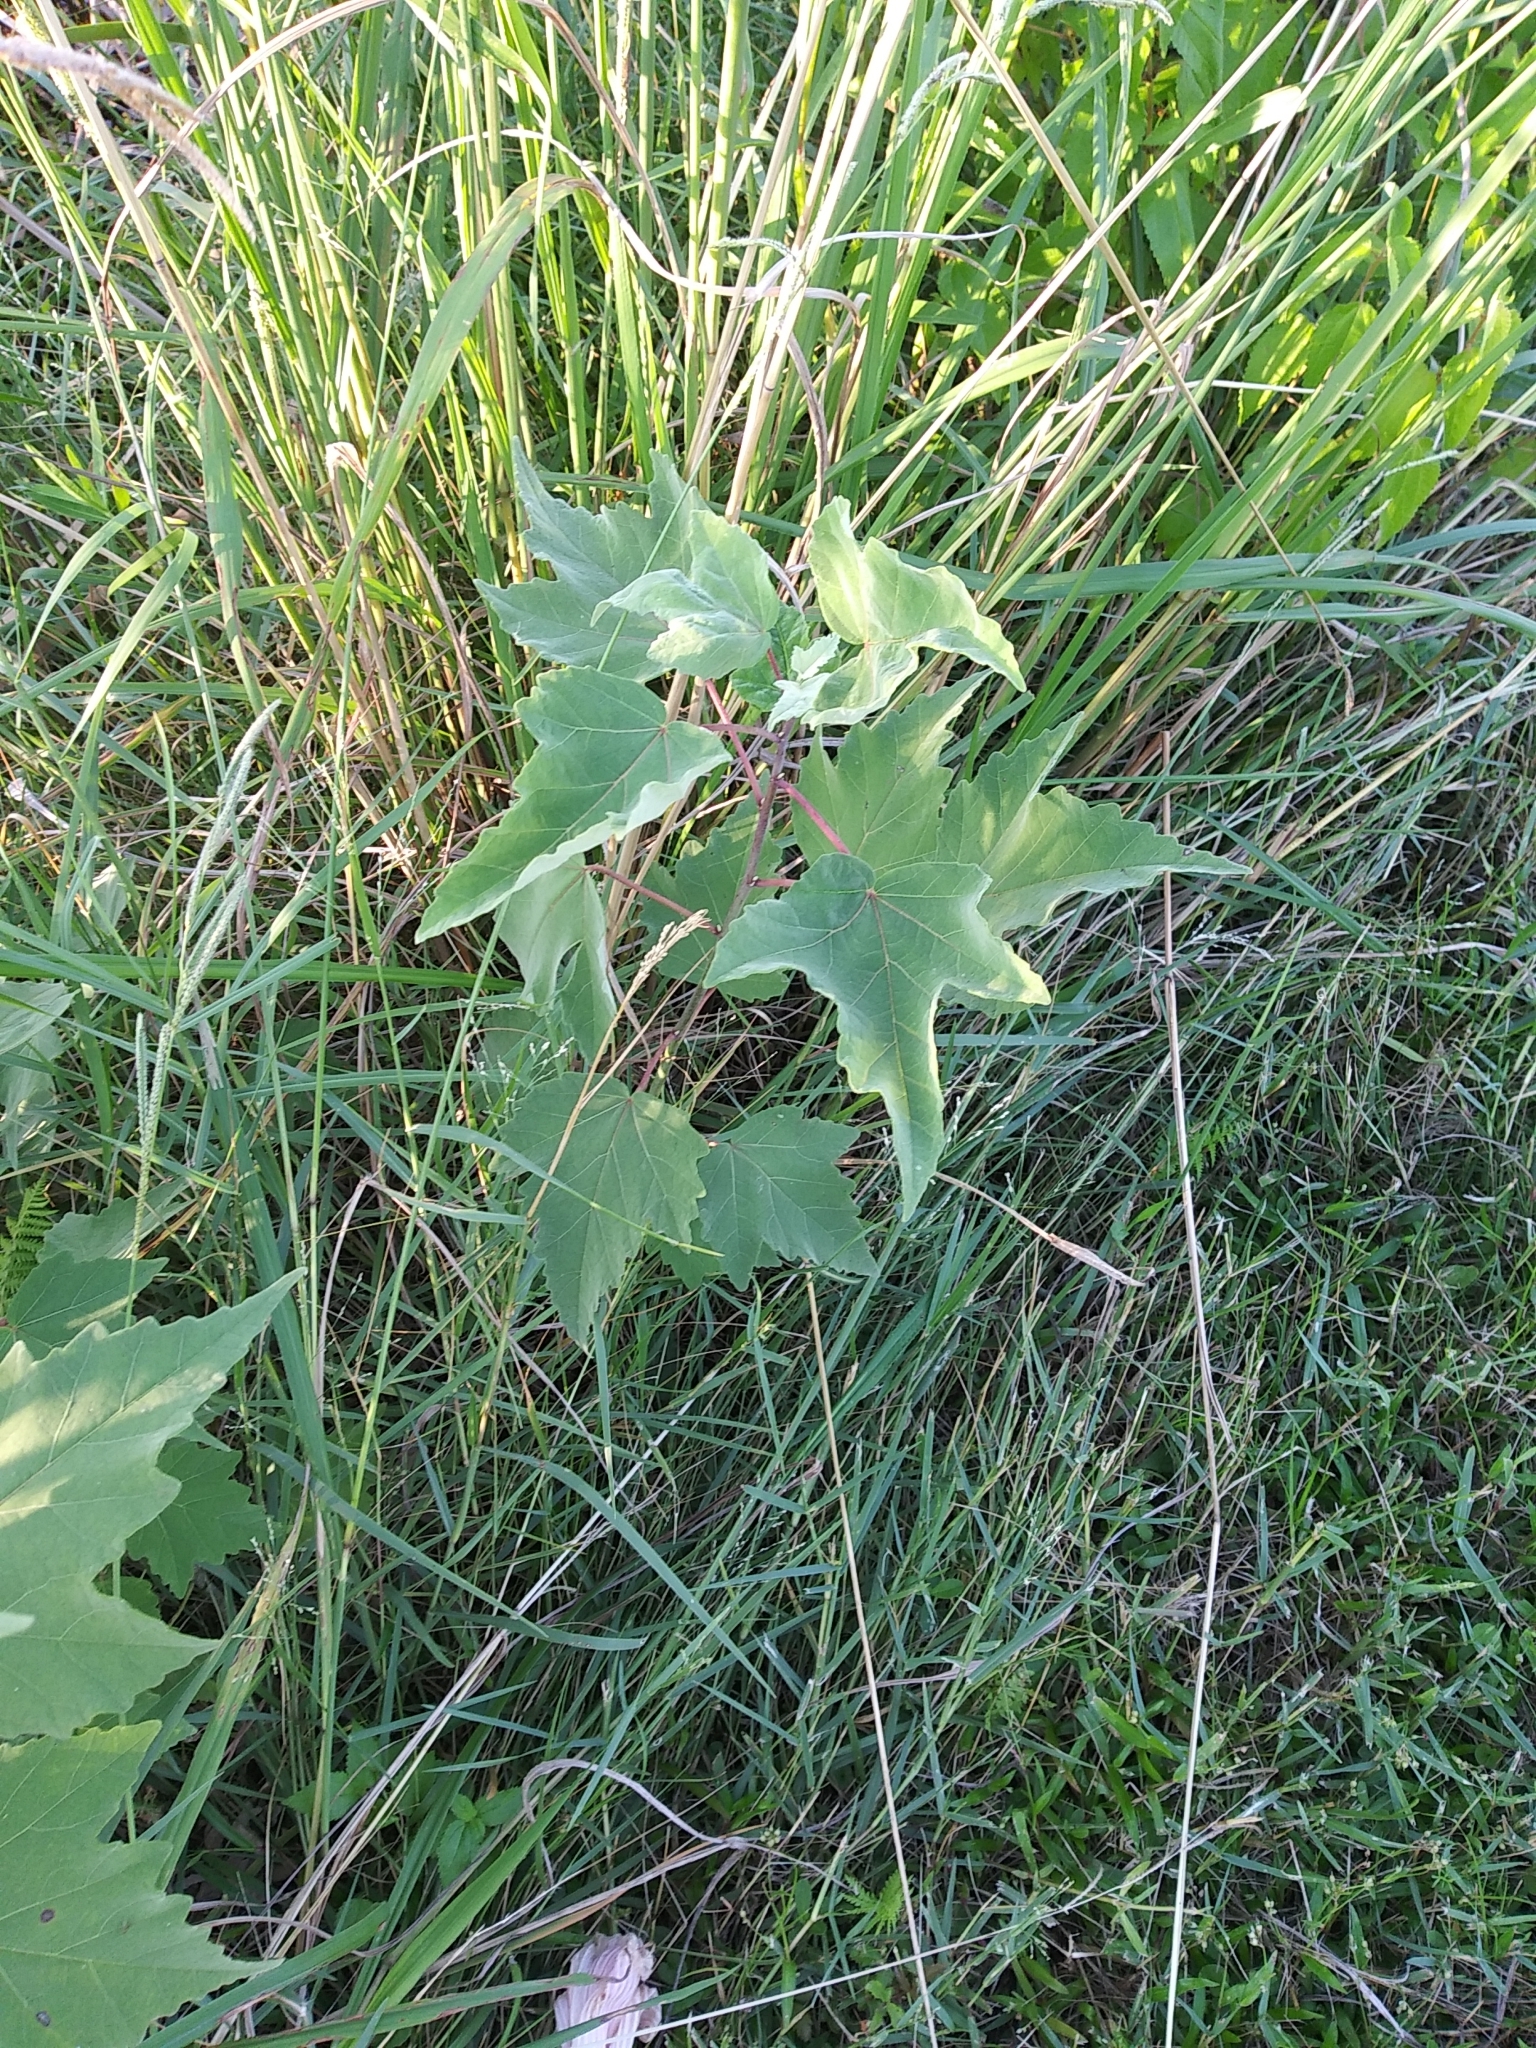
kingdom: Plantae
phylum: Tracheophyta
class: Magnoliopsida
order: Malvales
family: Malvaceae
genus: Hibiscus
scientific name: Hibiscus grandiflorus
